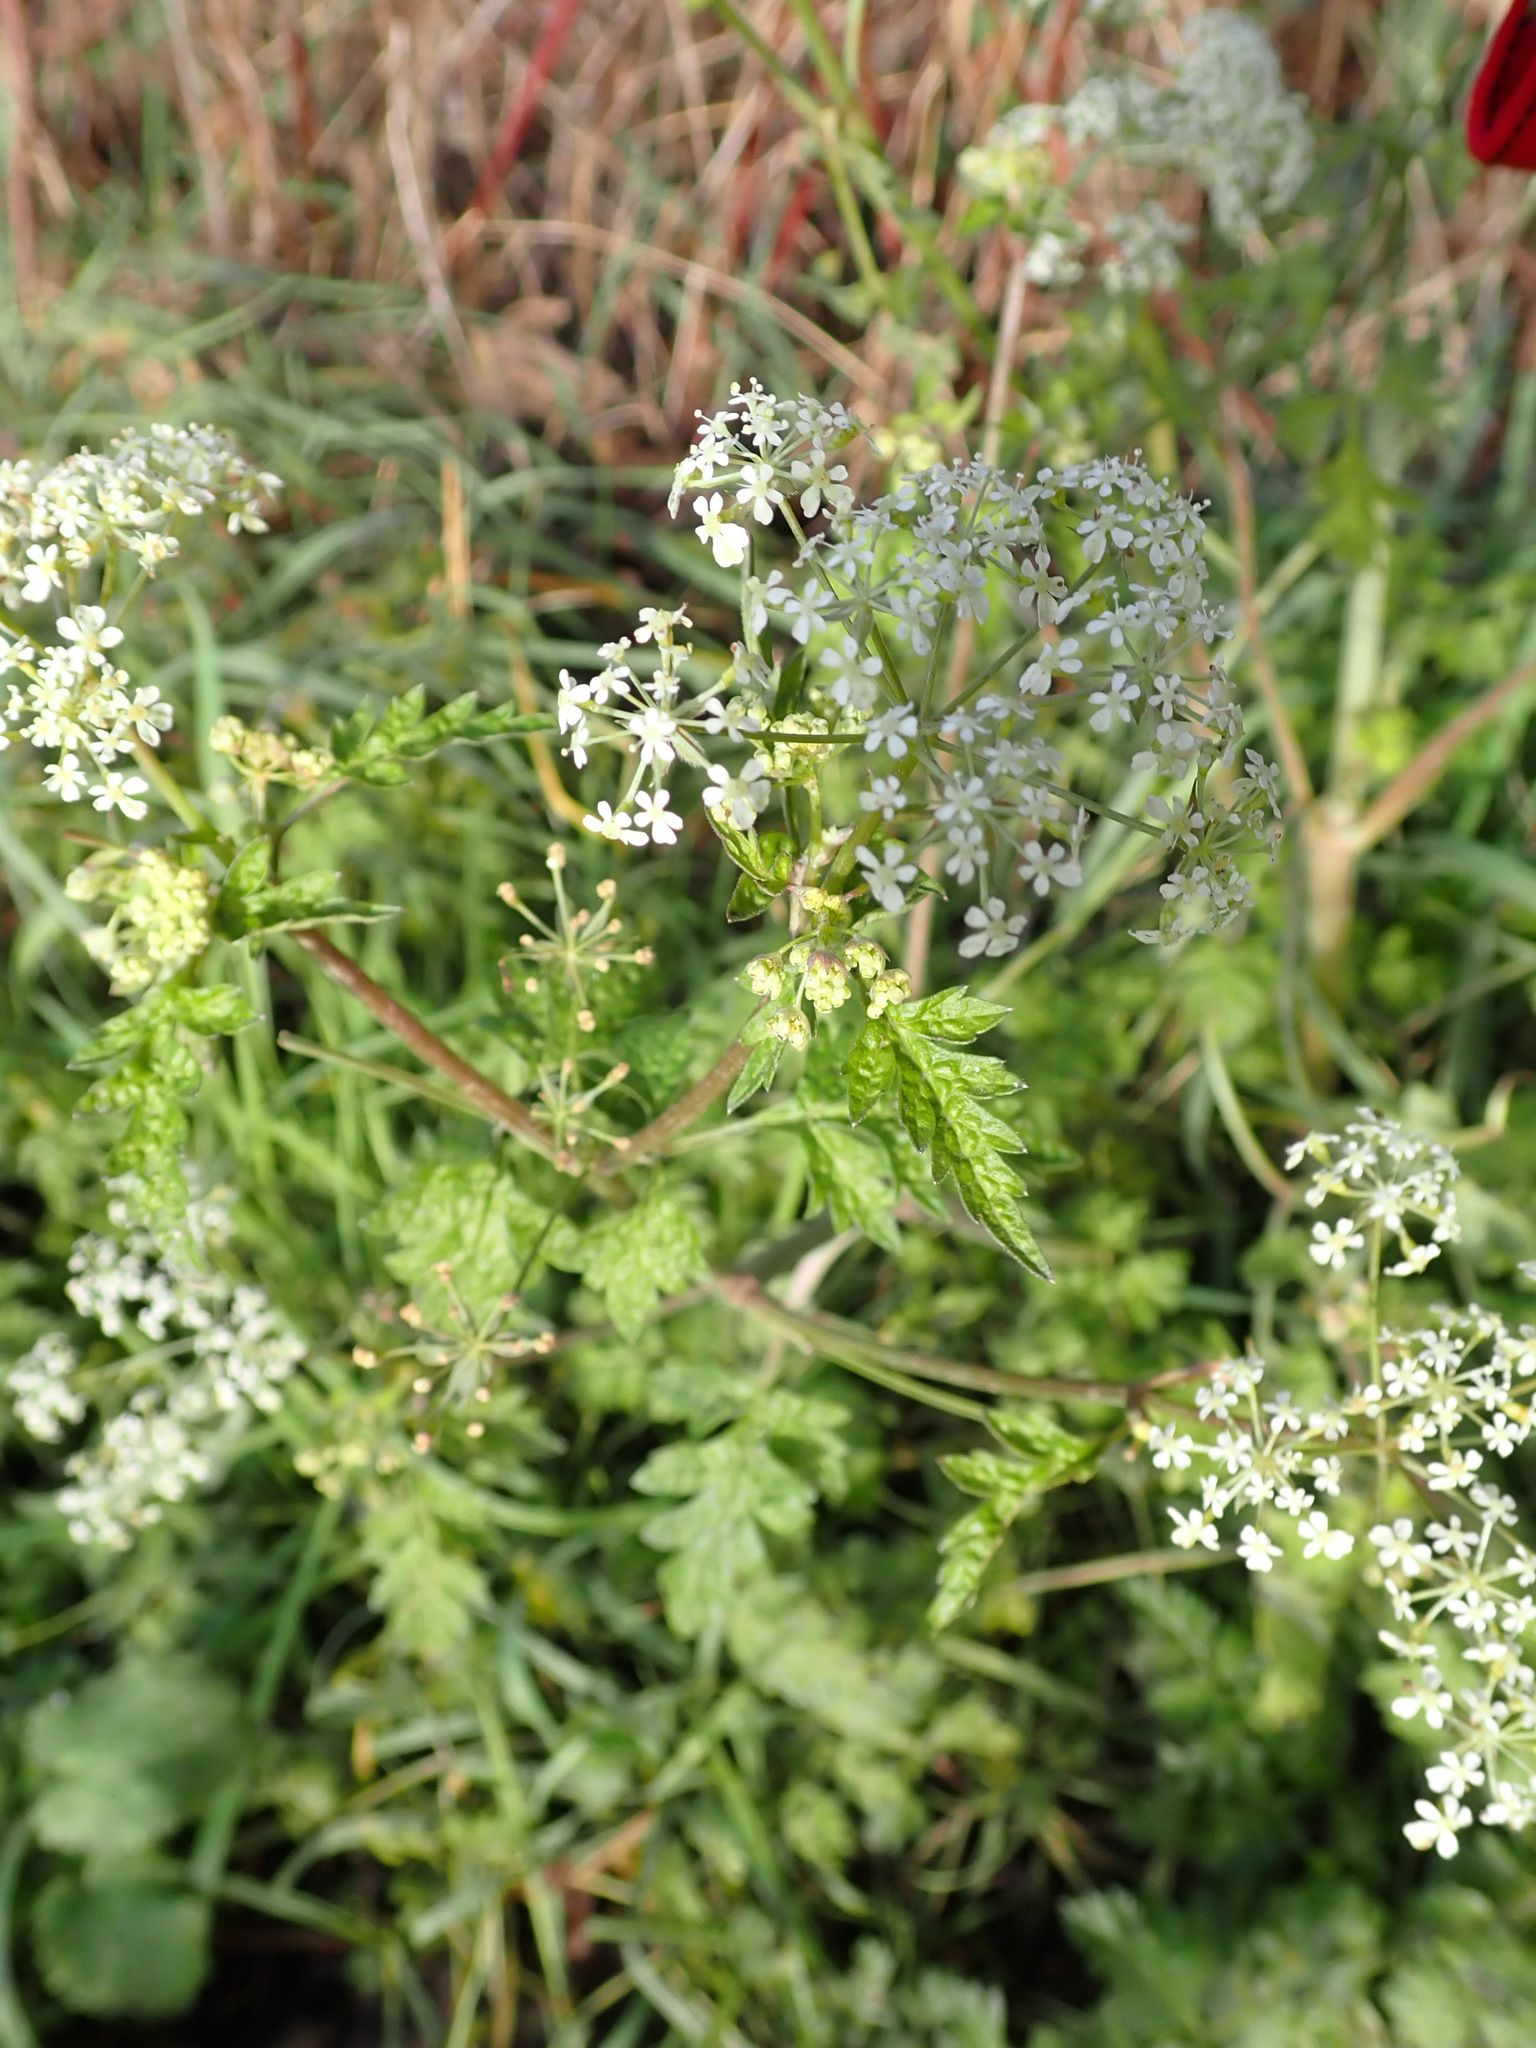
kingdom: Plantae
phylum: Tracheophyta
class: Magnoliopsida
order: Apiales
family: Apiaceae
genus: Anthriscus
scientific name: Anthriscus sylvestris
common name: Cow parsley
